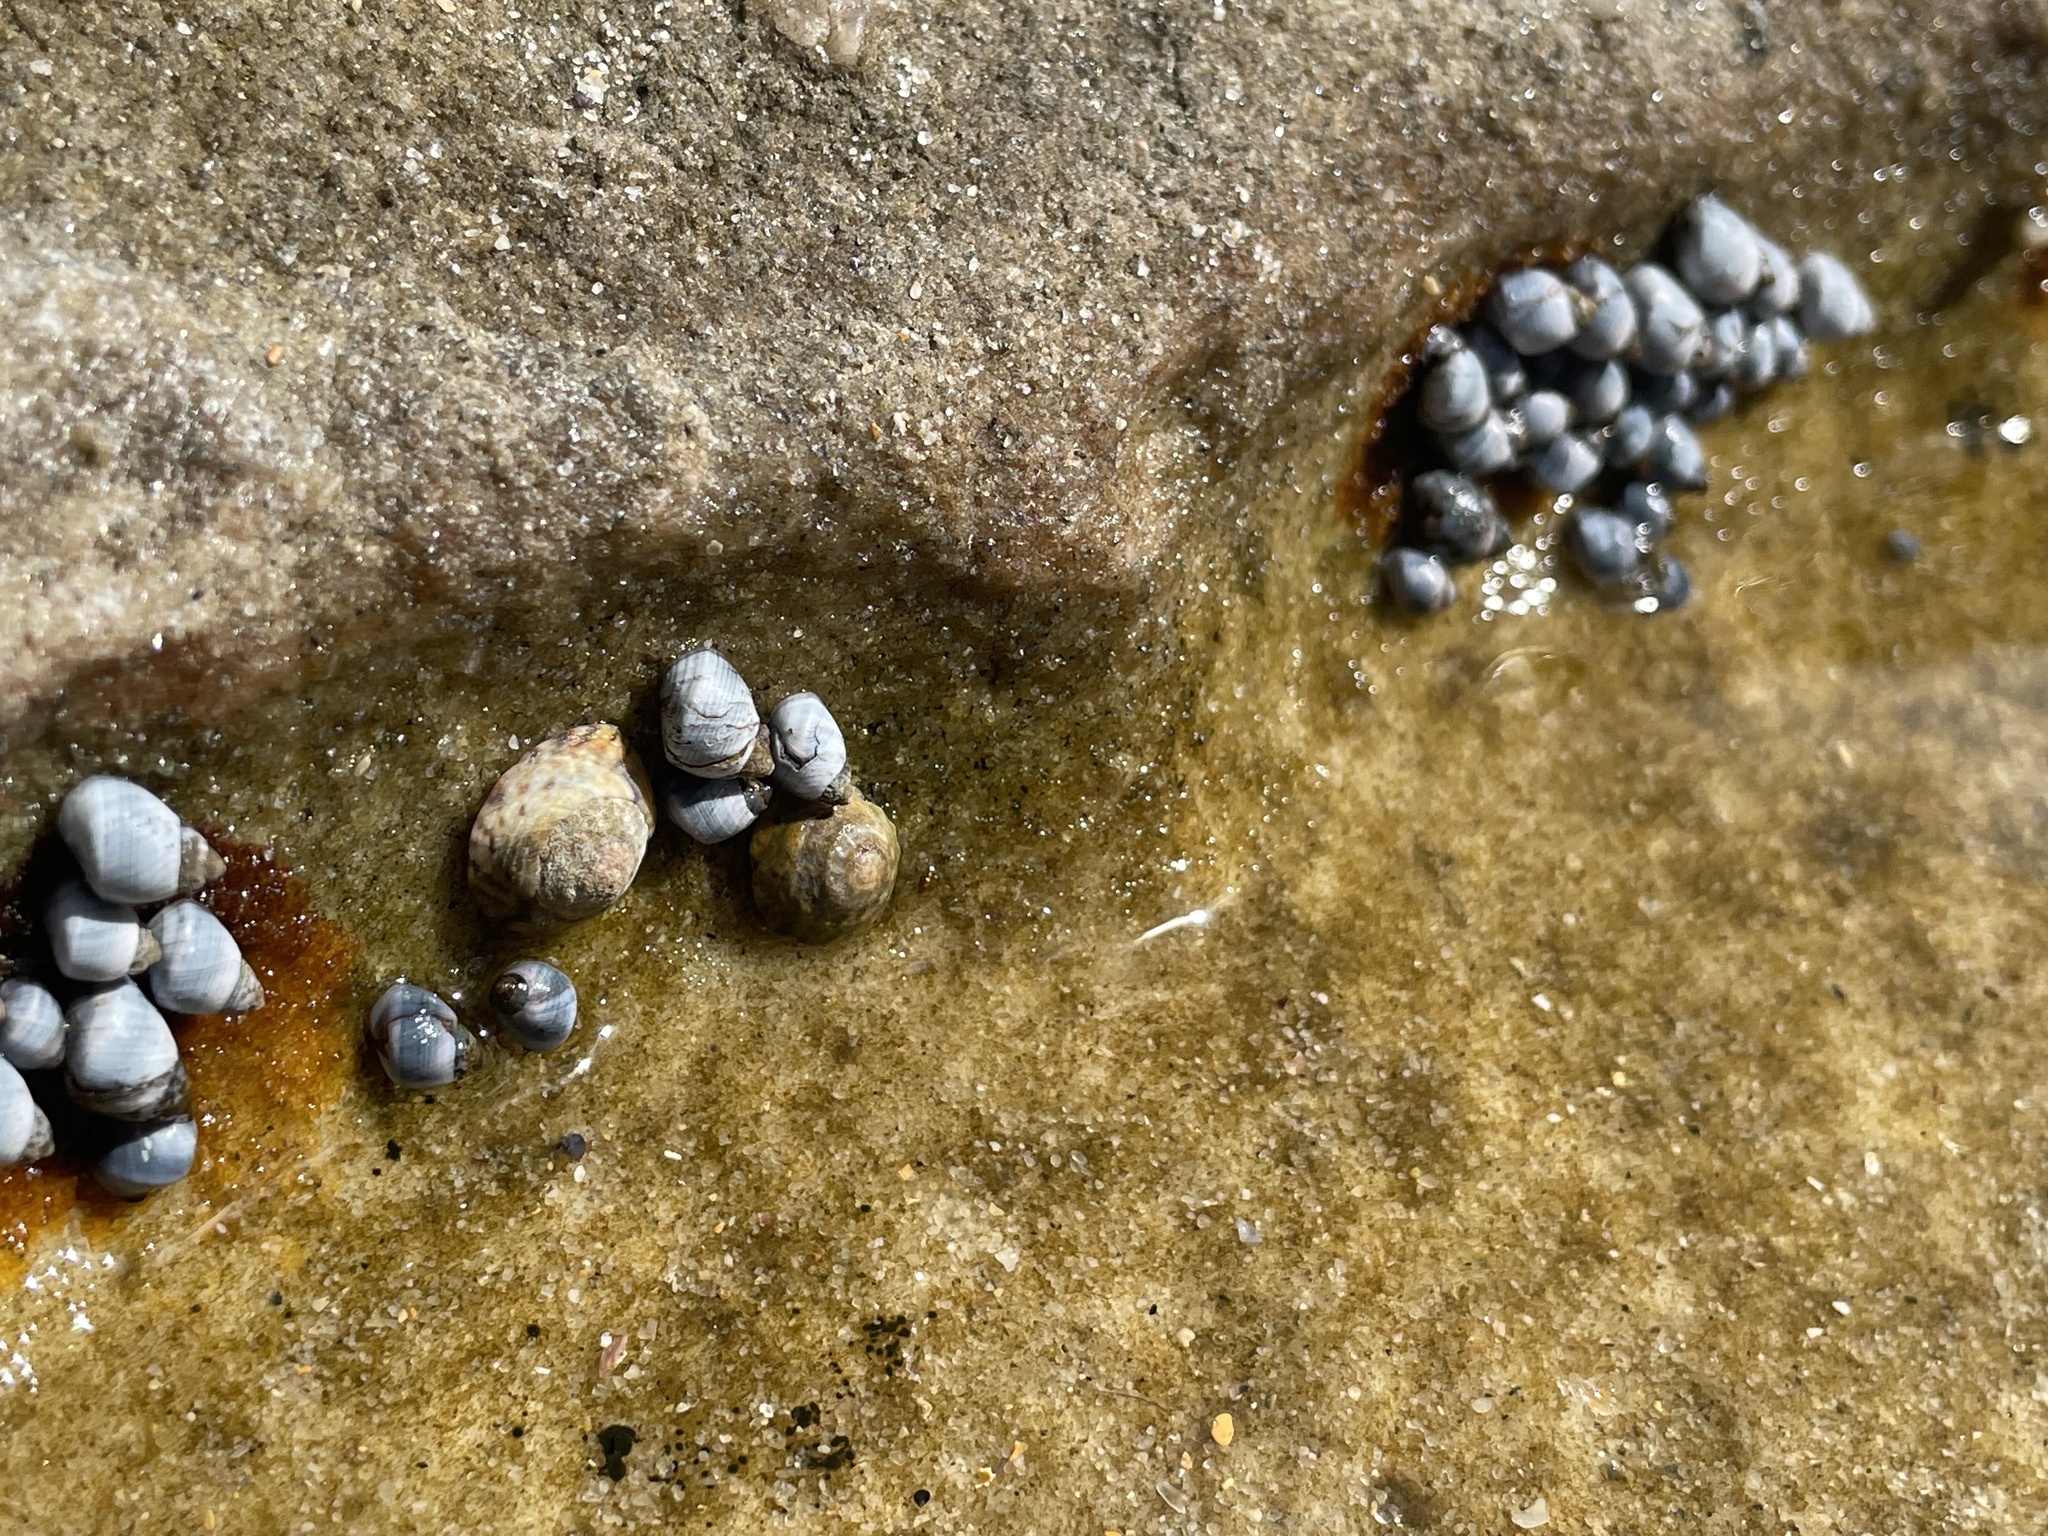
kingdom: Animalia
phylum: Mollusca
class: Gastropoda
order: Littorinimorpha
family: Littorinidae
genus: Austrolittorina
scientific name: Austrolittorina unifasciata
